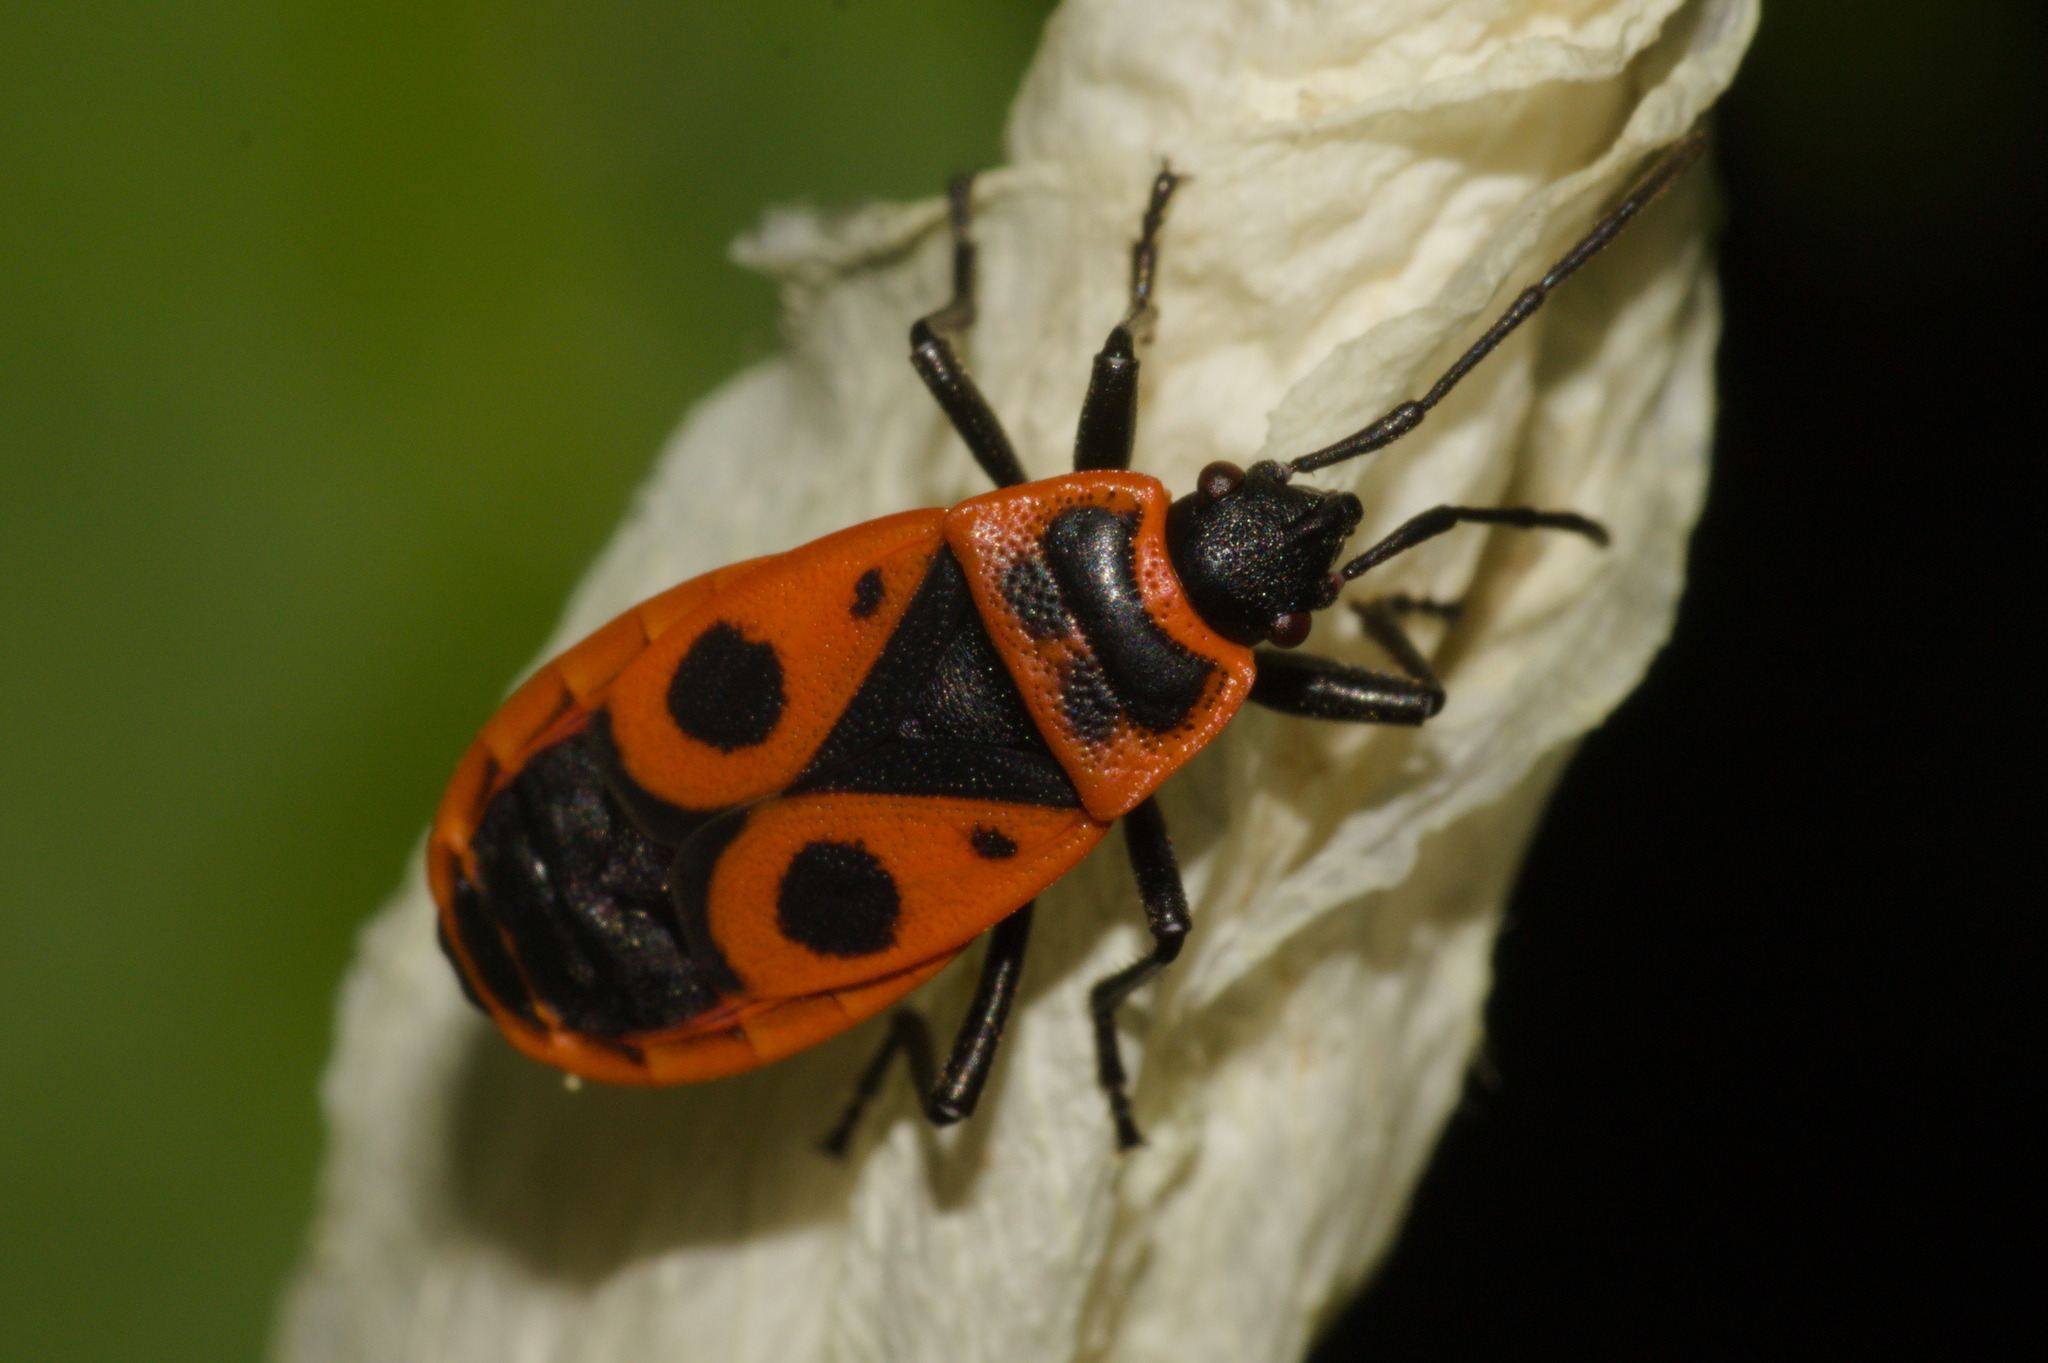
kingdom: Animalia
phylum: Arthropoda
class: Insecta
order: Hemiptera
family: Pyrrhocoridae
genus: Pyrrhocoris
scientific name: Pyrrhocoris apterus
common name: Firebug
